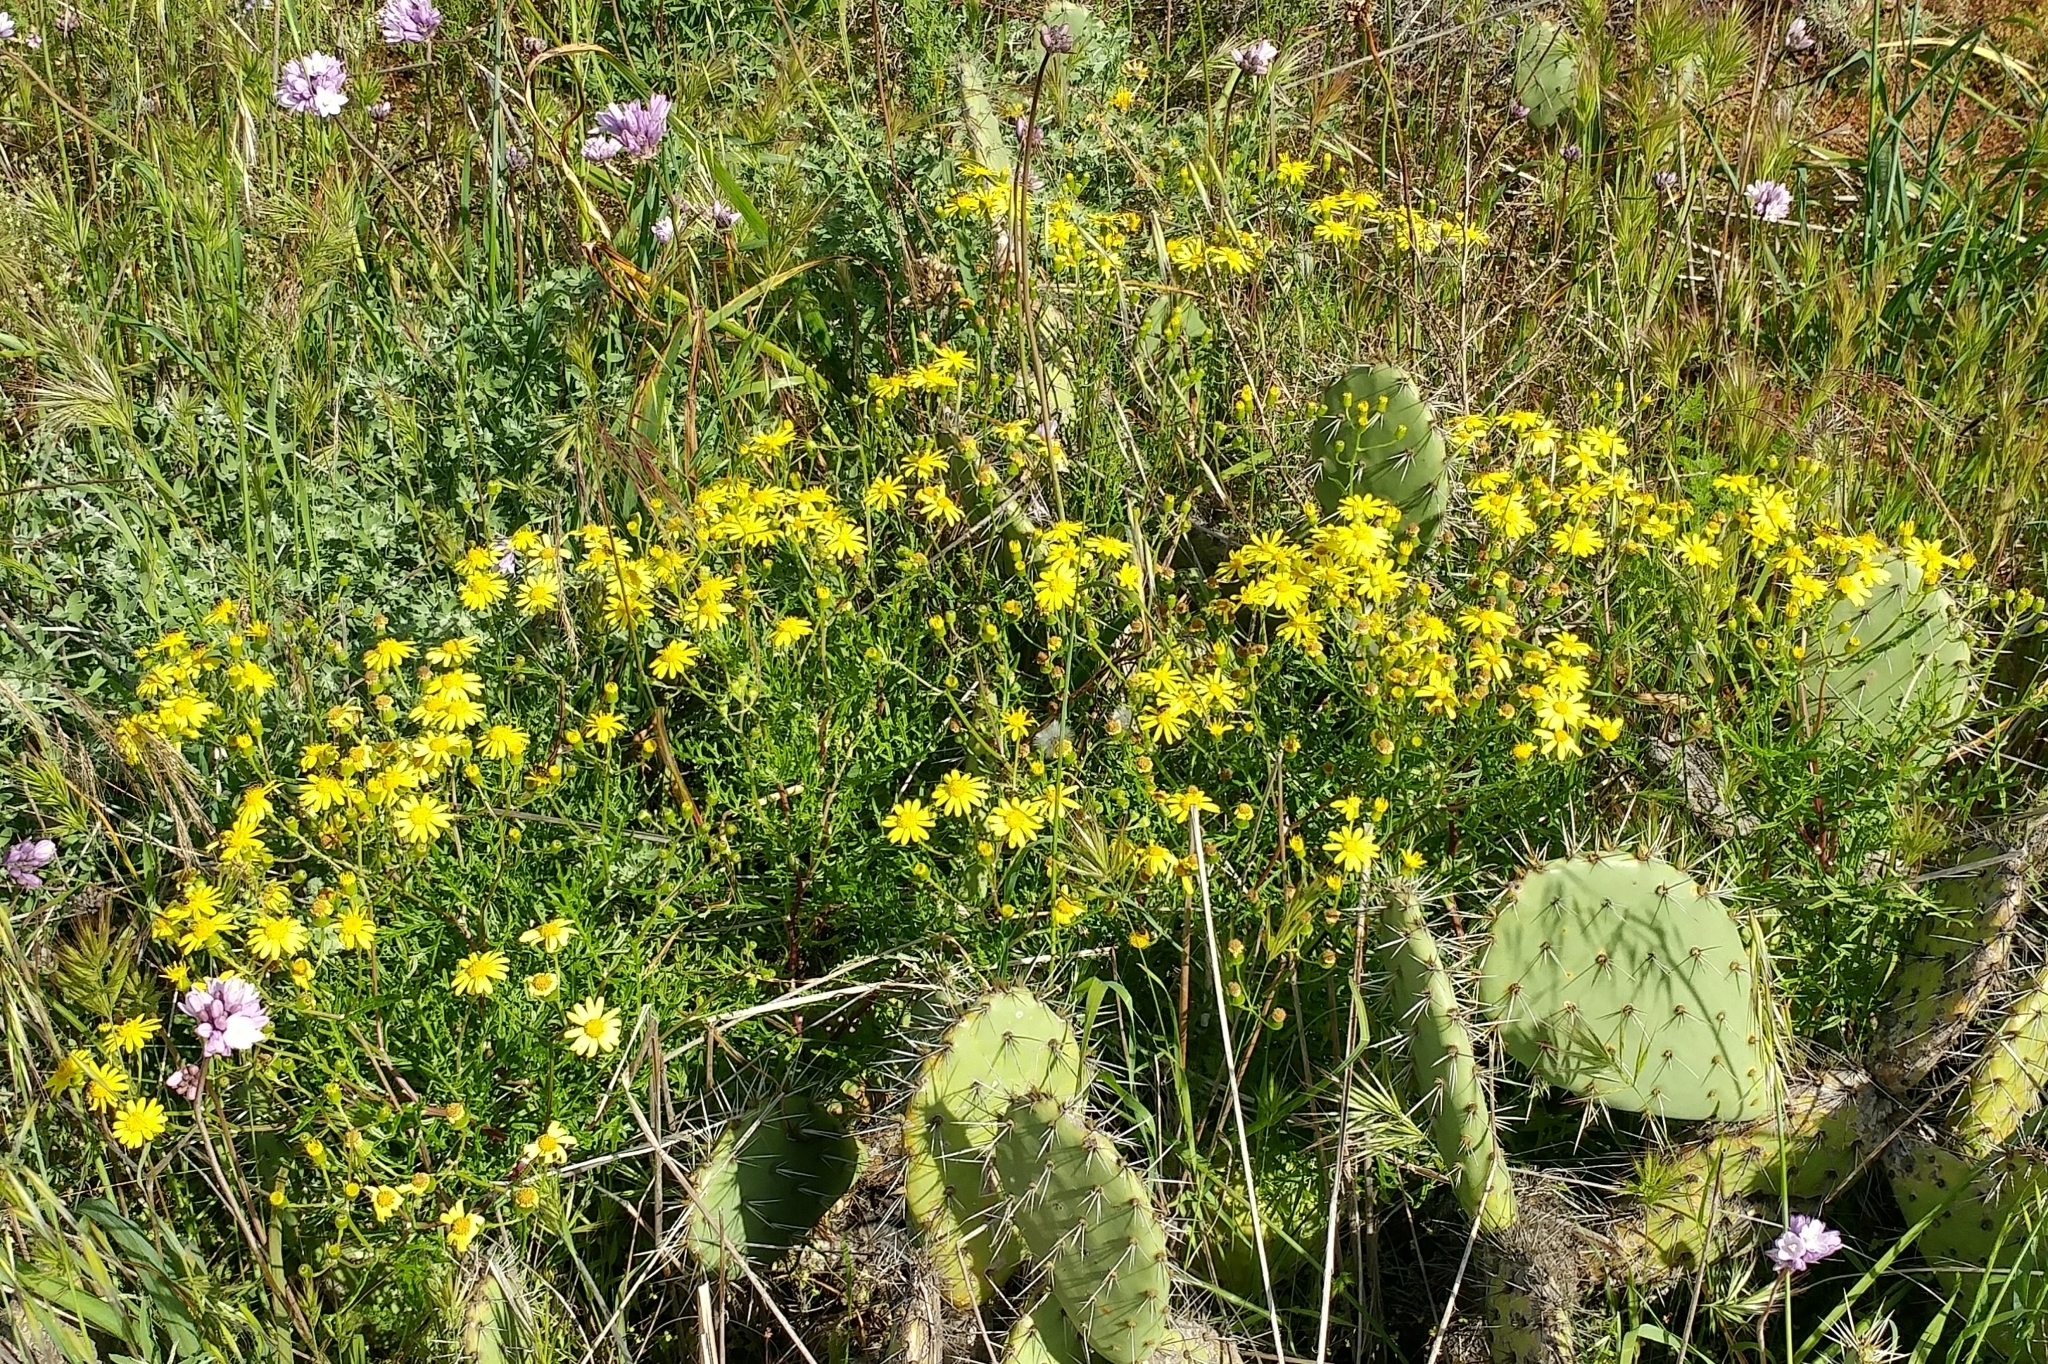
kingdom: Plantae
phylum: Tracheophyta
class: Magnoliopsida
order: Asterales
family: Asteraceae
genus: Senecio
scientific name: Senecio lyonii
